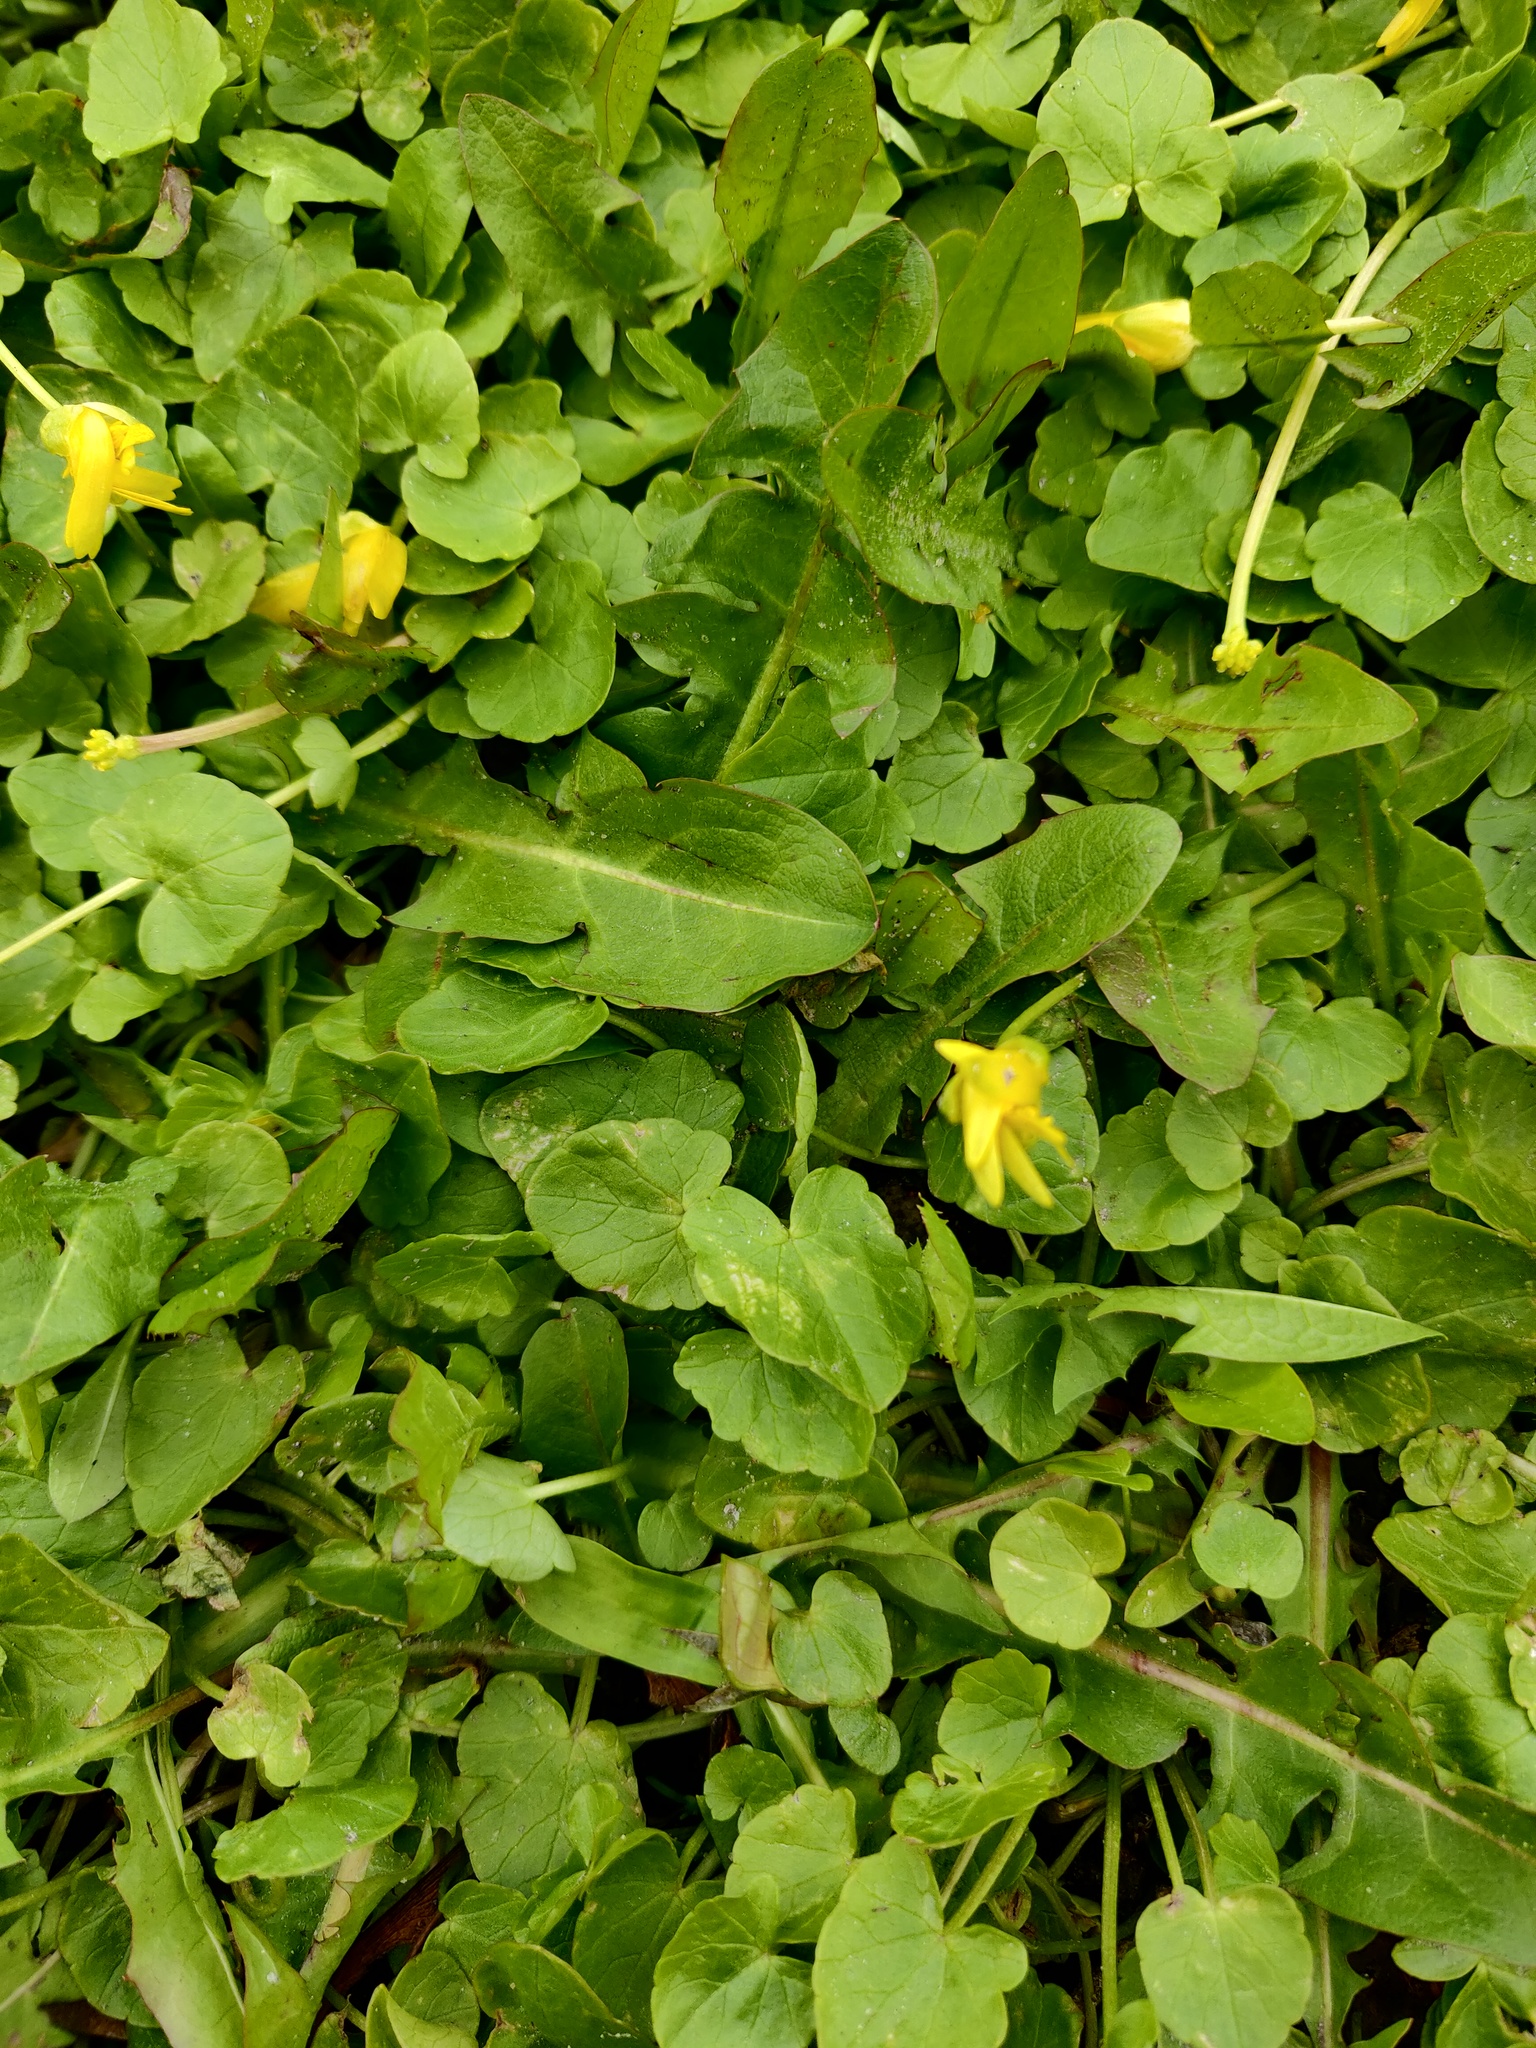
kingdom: Plantae
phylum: Tracheophyta
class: Magnoliopsida
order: Ranunculales
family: Ranunculaceae
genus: Ficaria
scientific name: Ficaria verna
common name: Lesser celandine
